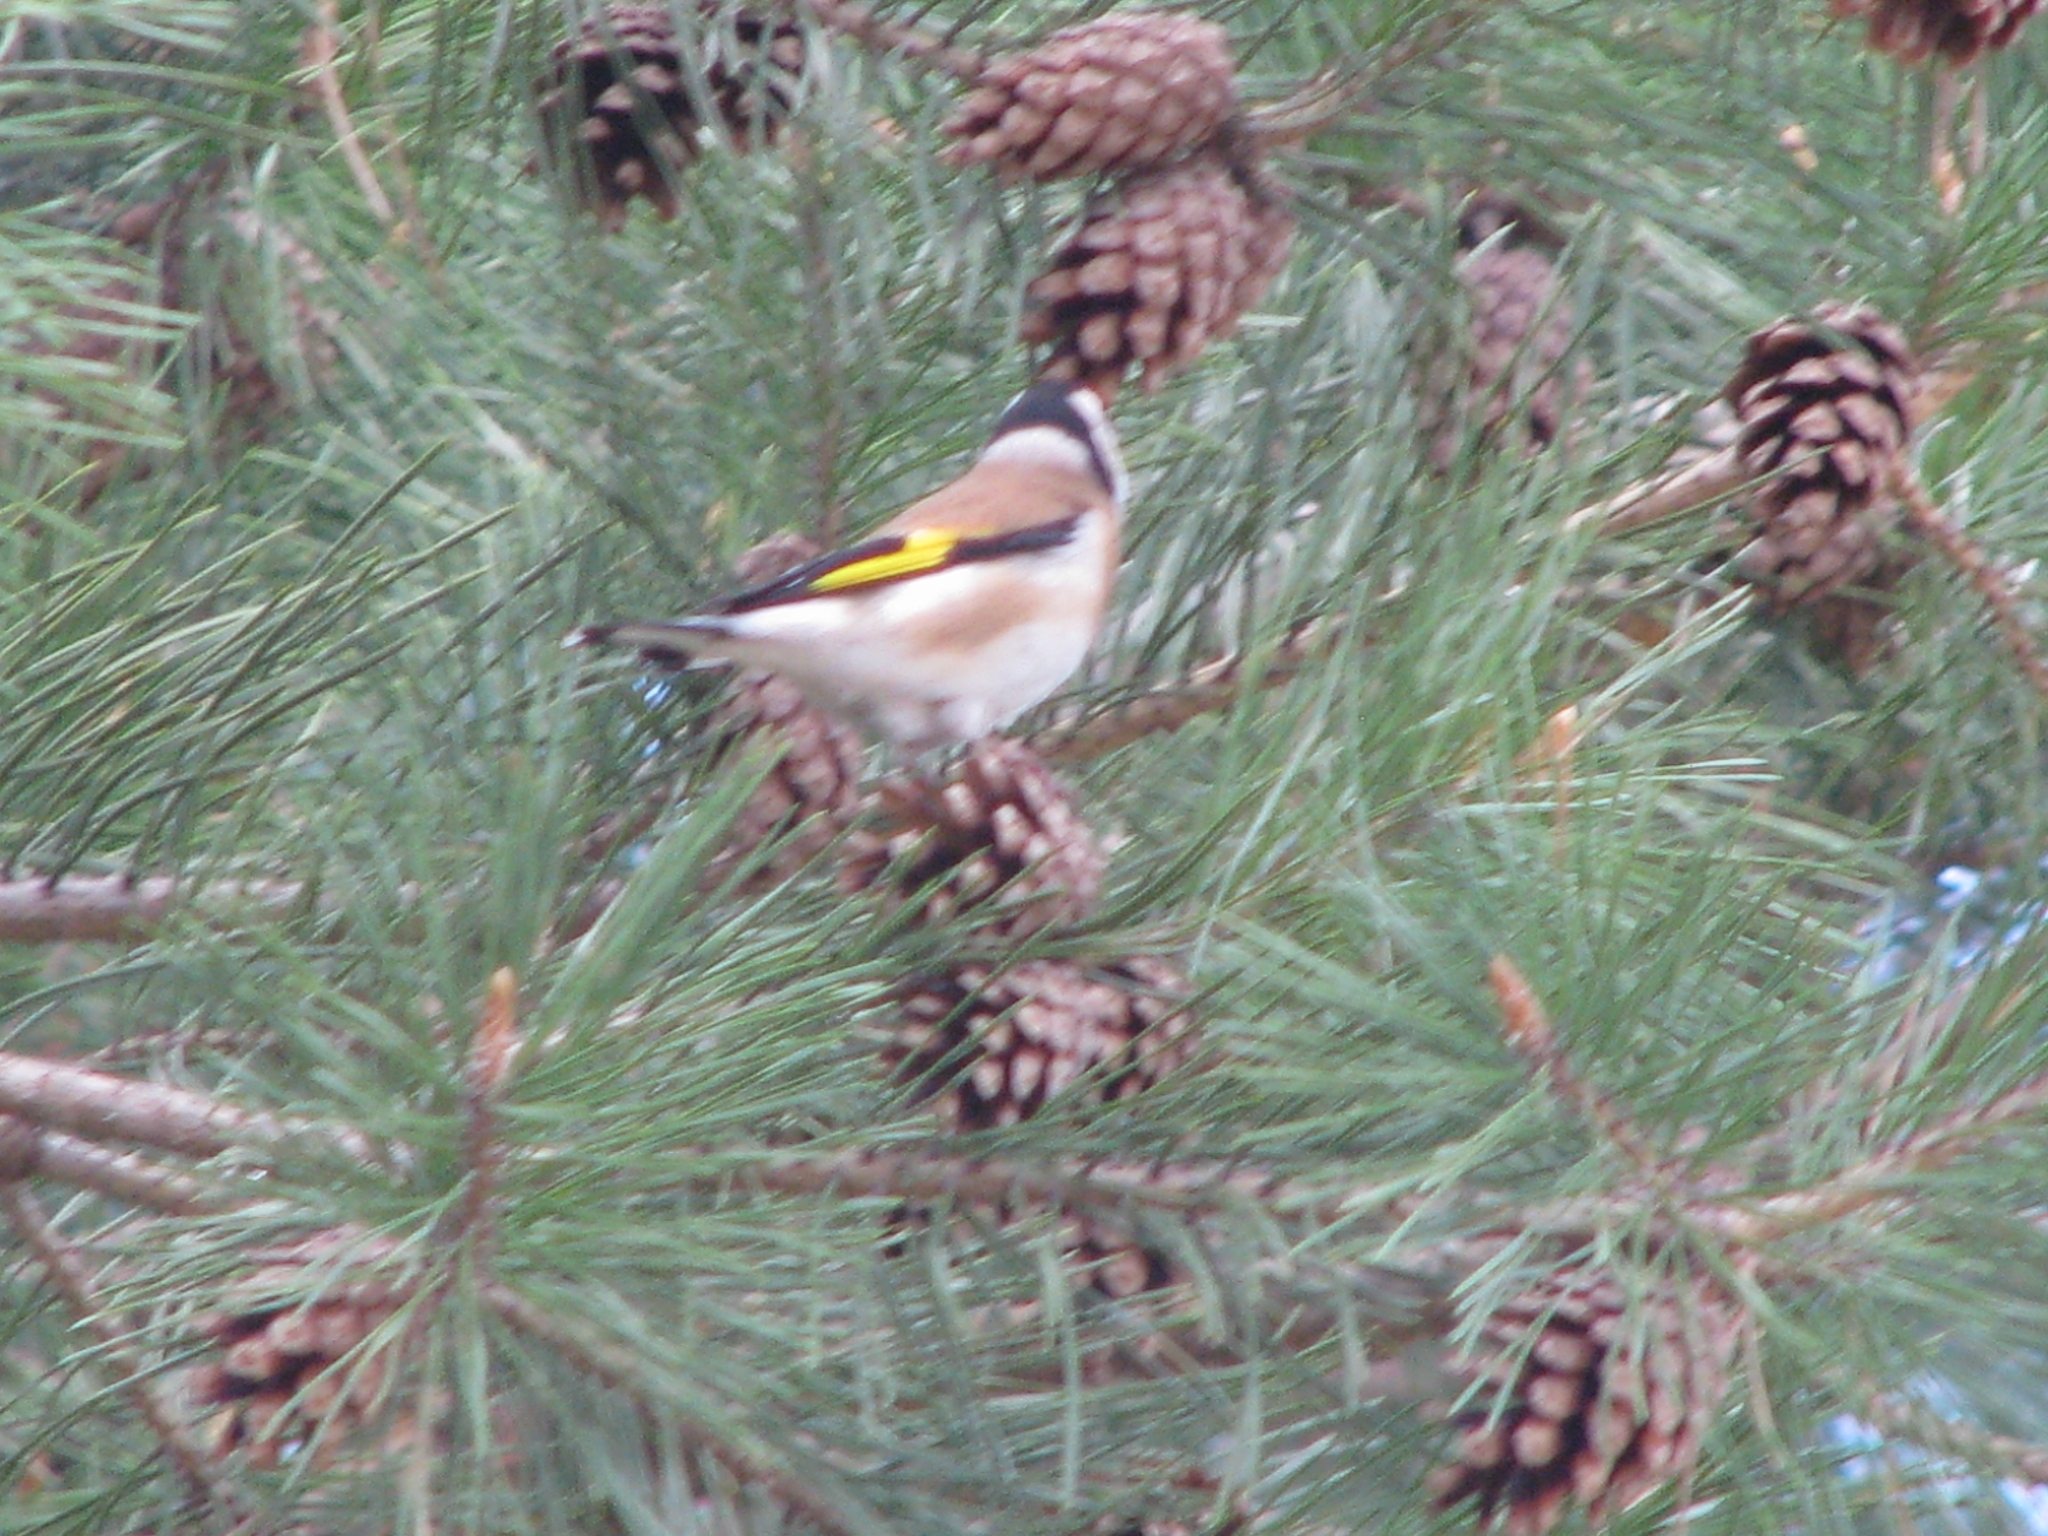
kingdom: Animalia
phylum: Chordata
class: Aves
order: Passeriformes
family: Fringillidae
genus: Carduelis
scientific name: Carduelis carduelis
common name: European goldfinch
